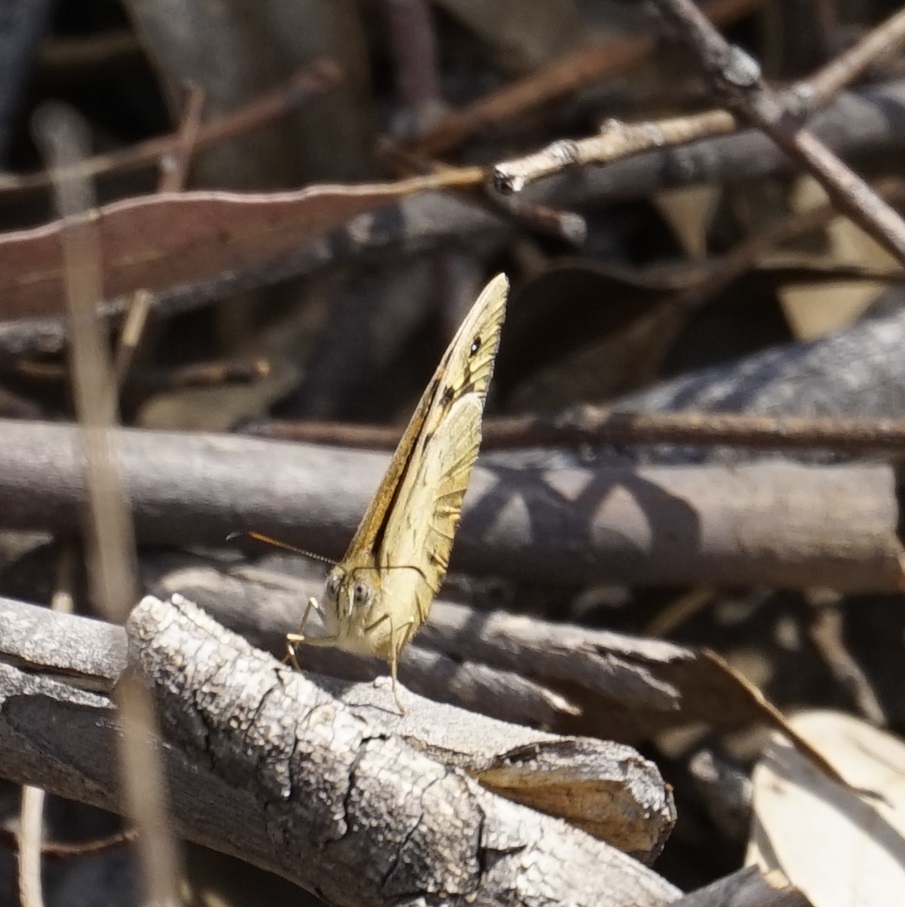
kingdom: Animalia
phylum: Arthropoda
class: Insecta
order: Lepidoptera
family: Nymphalidae
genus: Heteronympha
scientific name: Heteronympha merope
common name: Common brown
